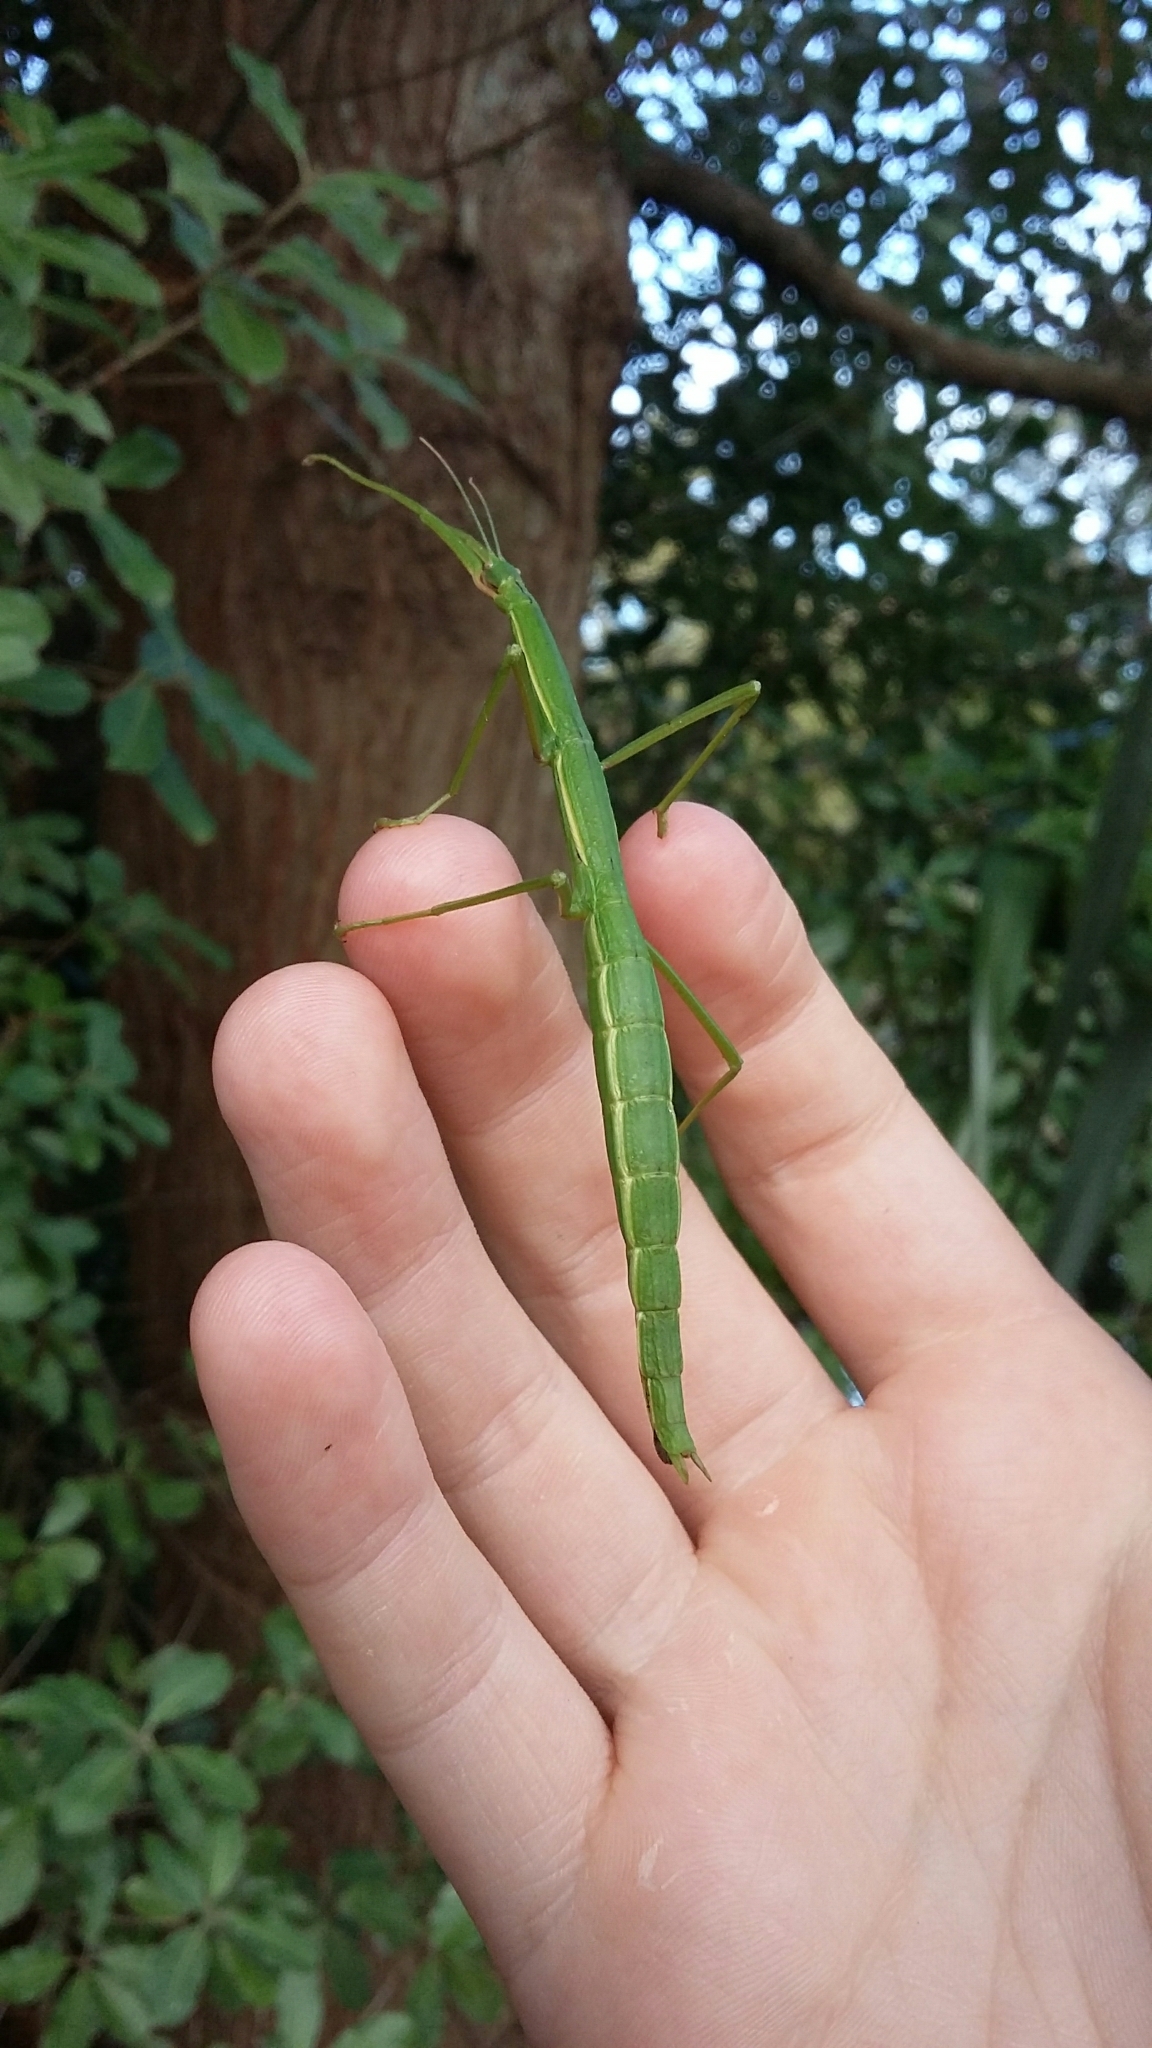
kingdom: Animalia
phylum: Arthropoda
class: Insecta
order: Phasmida
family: Phasmatidae
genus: Clitarchus
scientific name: Clitarchus hookeri
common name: Smooth stick insect
